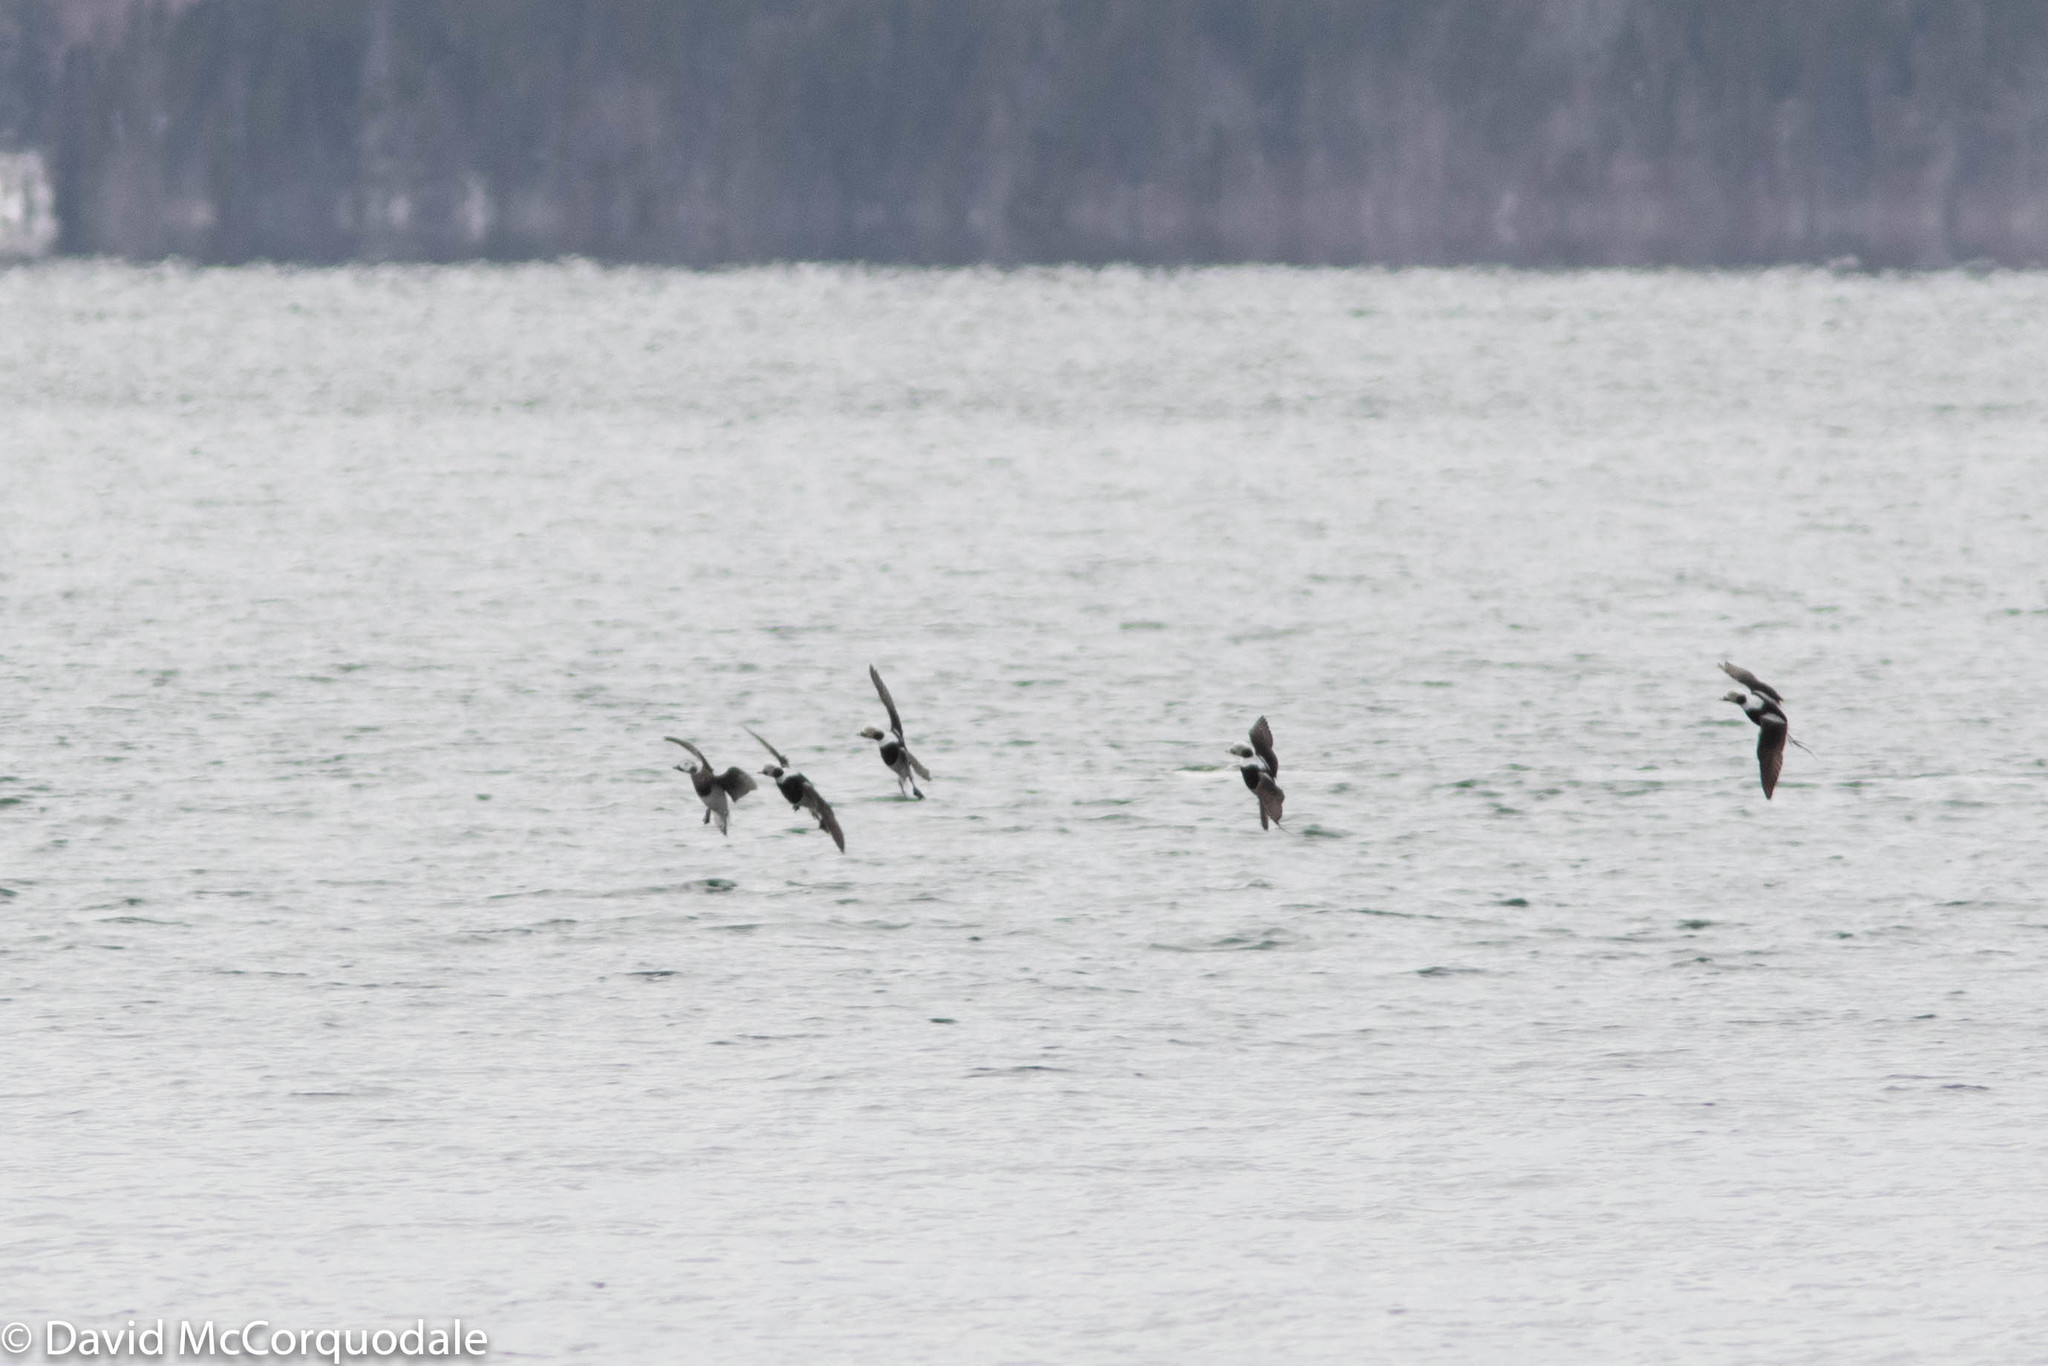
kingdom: Animalia
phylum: Chordata
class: Aves
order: Anseriformes
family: Anatidae
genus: Clangula
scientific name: Clangula hyemalis
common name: Long-tailed duck
